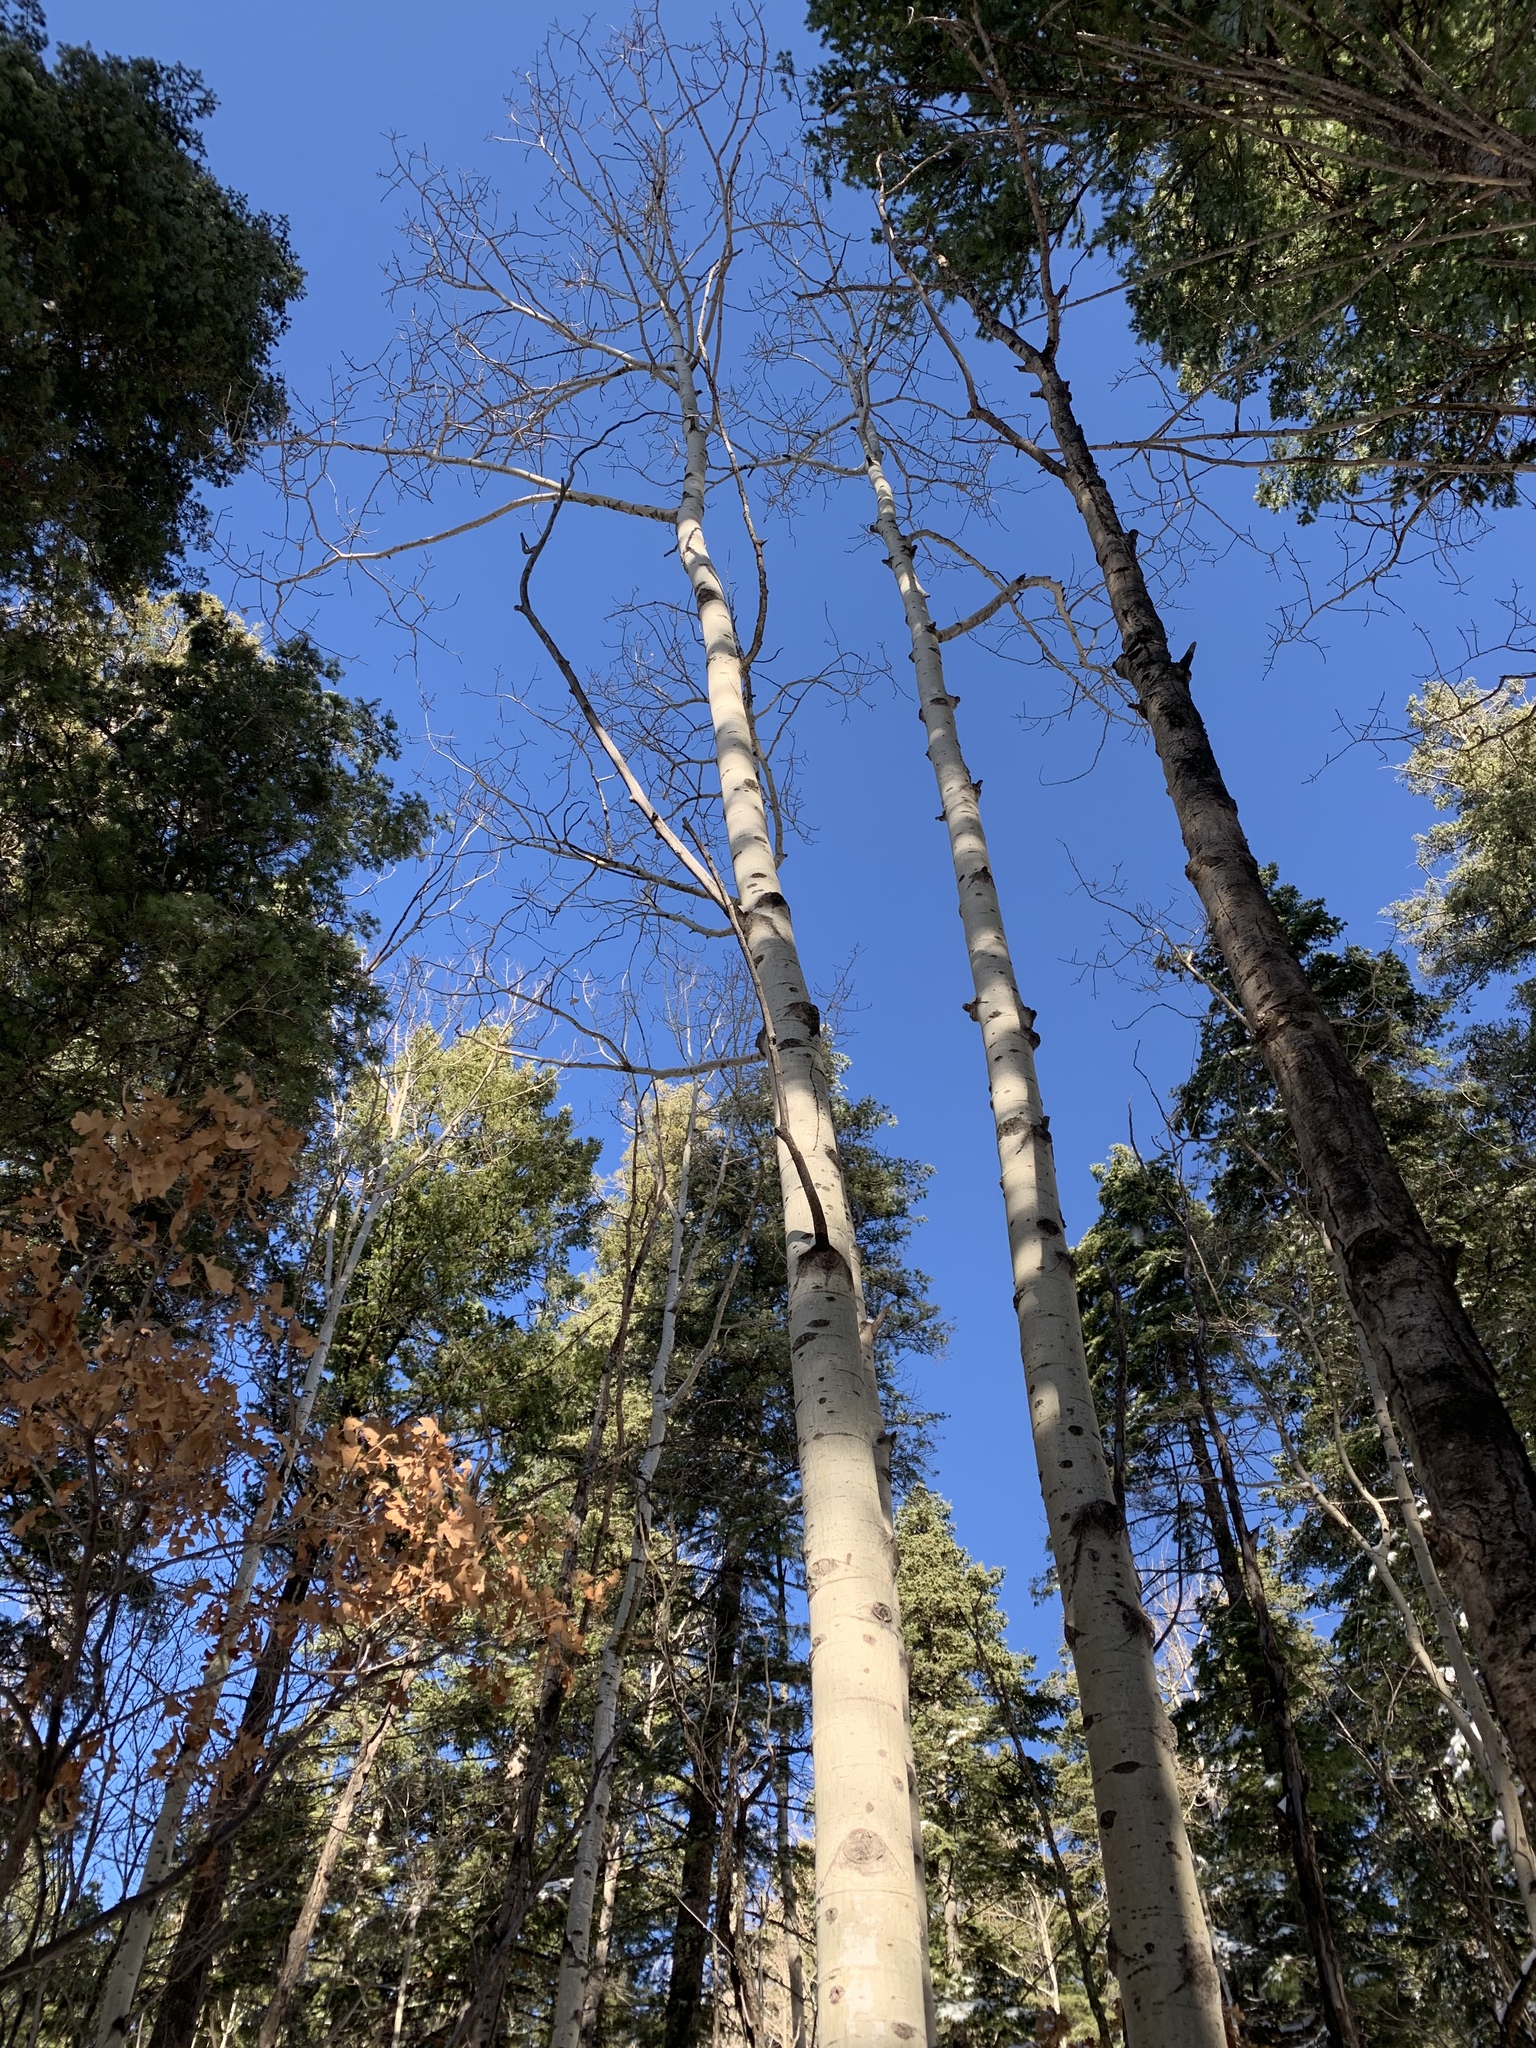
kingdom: Plantae
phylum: Tracheophyta
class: Magnoliopsida
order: Malpighiales
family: Salicaceae
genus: Populus
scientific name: Populus tremuloides
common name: Quaking aspen
